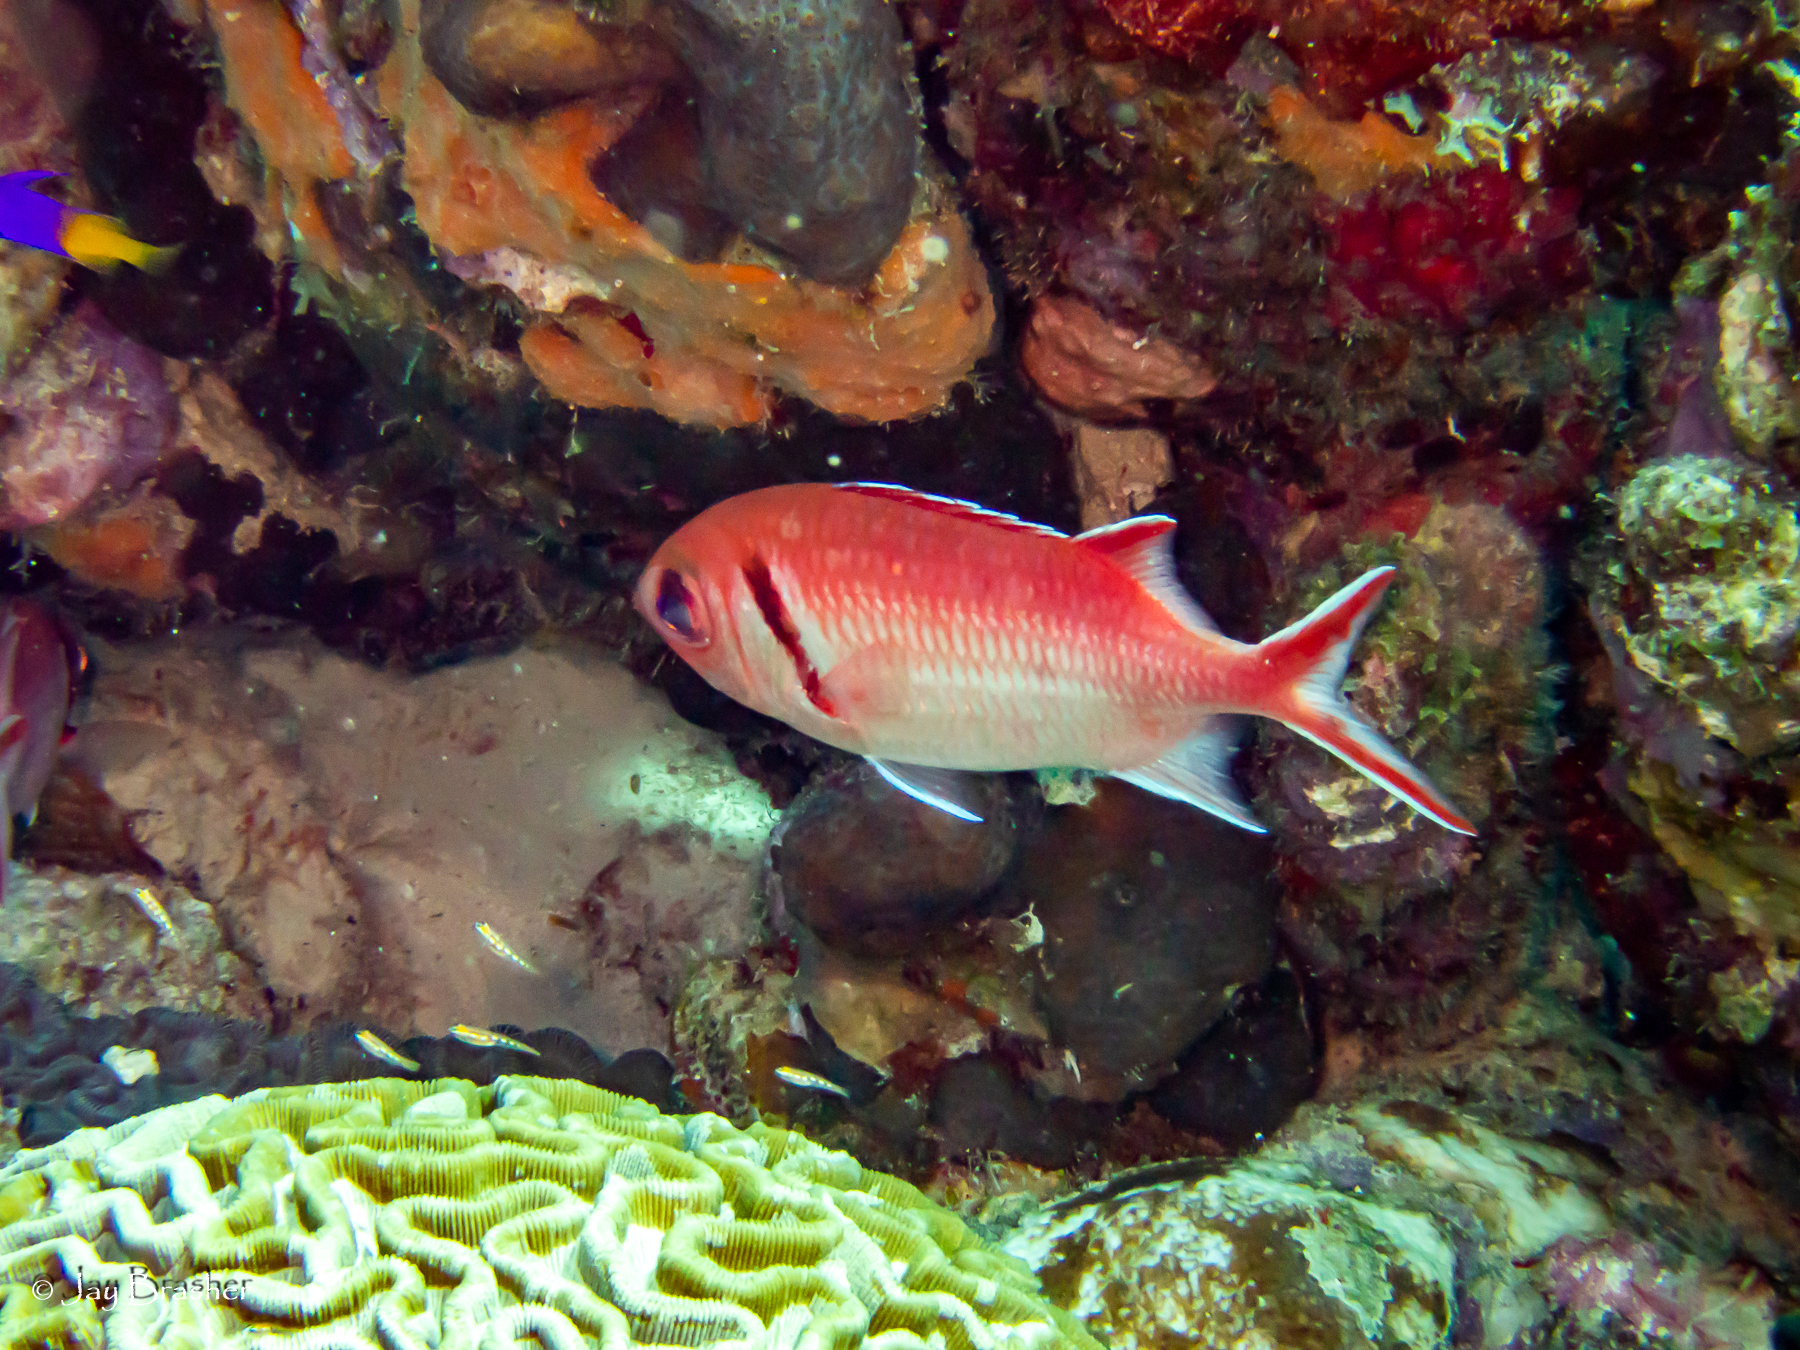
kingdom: Animalia
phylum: Chordata
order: Beryciformes
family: Holocentridae
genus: Myripristis
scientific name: Myripristis jacobus
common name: Blackbar soldierfish
